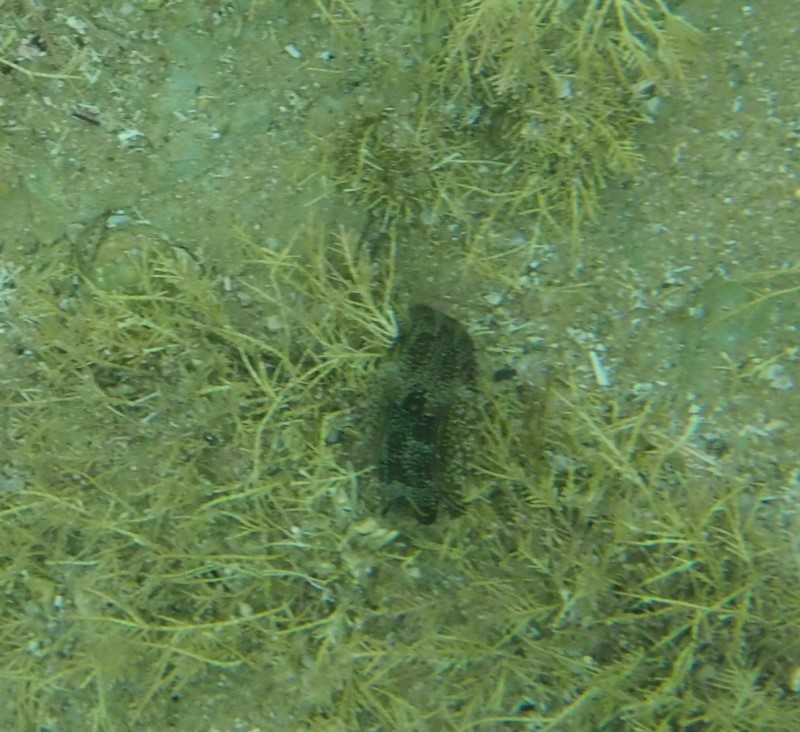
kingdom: Animalia
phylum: Mollusca
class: Gastropoda
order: Cephalaspidea
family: Aglajidae
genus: Philinopsis
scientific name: Philinopsis taronga
